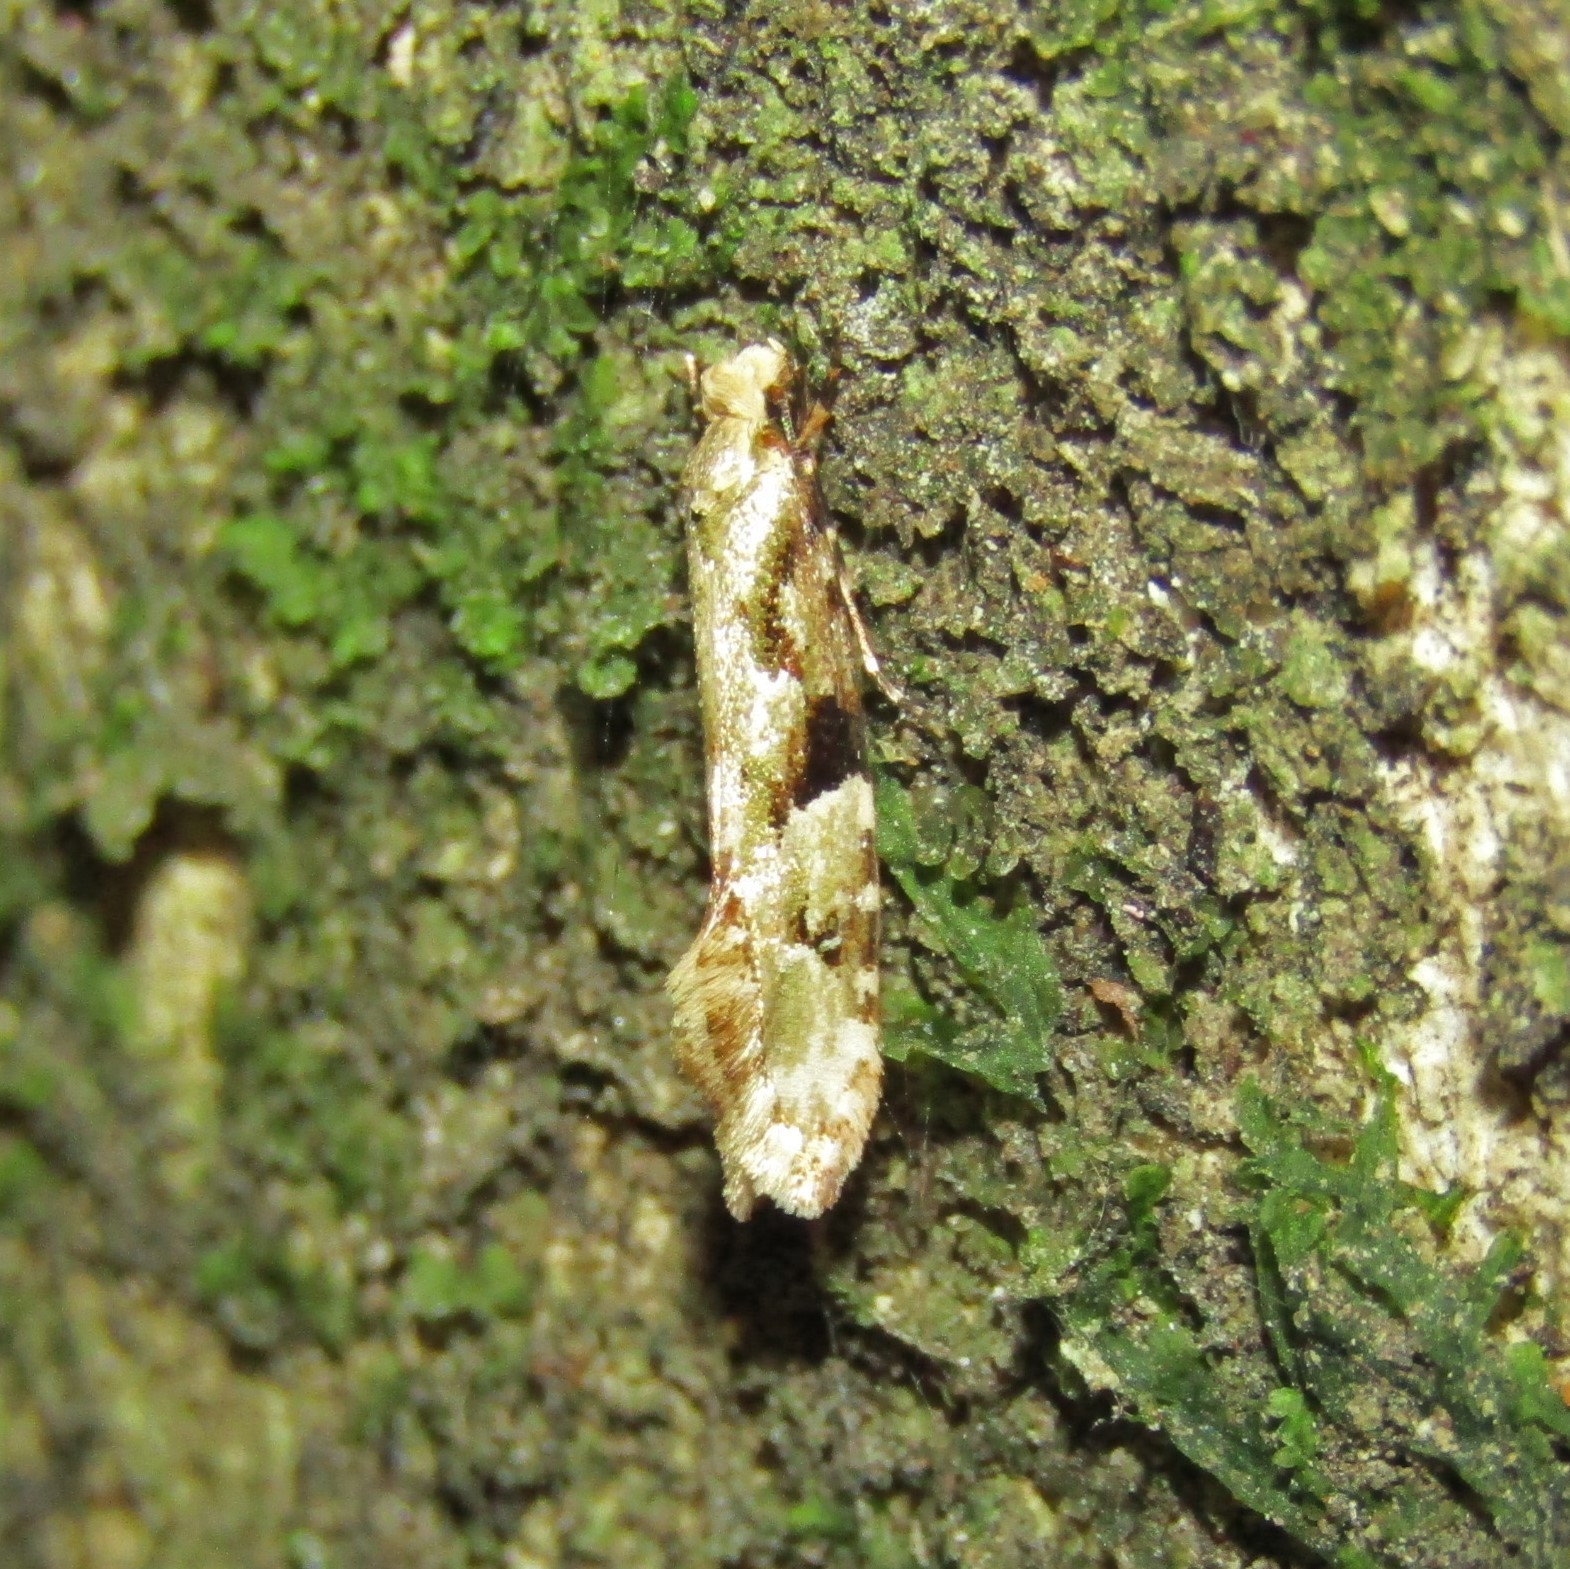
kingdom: Animalia
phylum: Arthropoda
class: Insecta
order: Lepidoptera
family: Tineidae
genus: Crypsitricha
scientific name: Crypsitricha mesotypa
